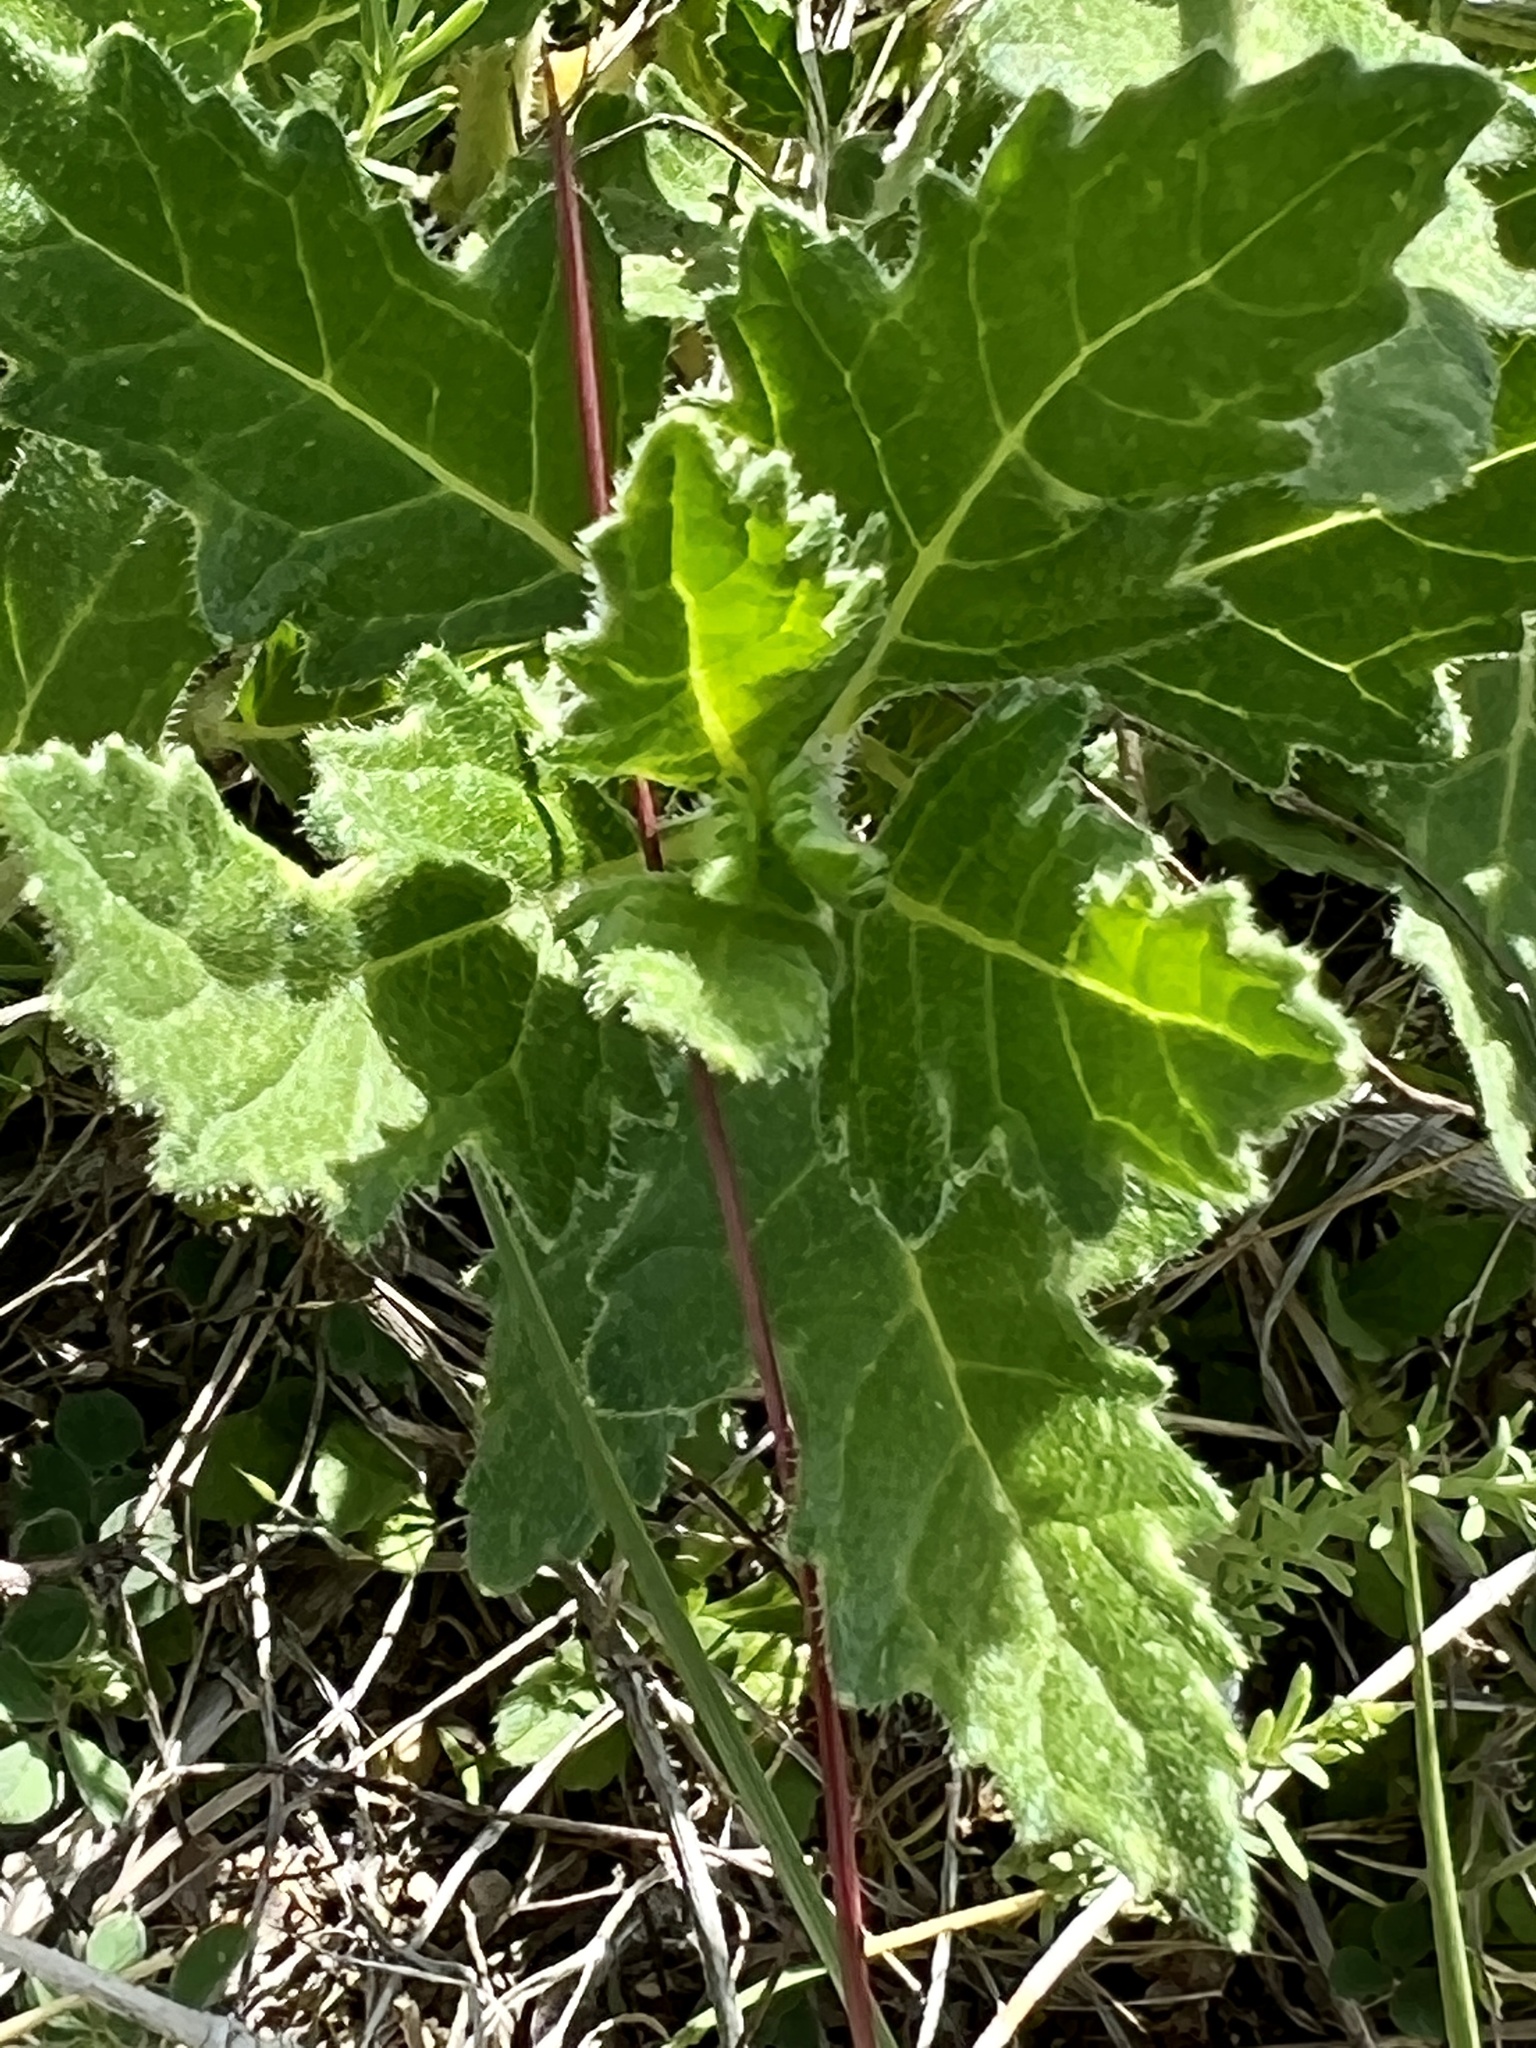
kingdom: Plantae
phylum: Tracheophyta
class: Magnoliopsida
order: Cornales
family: Loasaceae
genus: Mentzelia
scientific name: Mentzelia oligosperma
